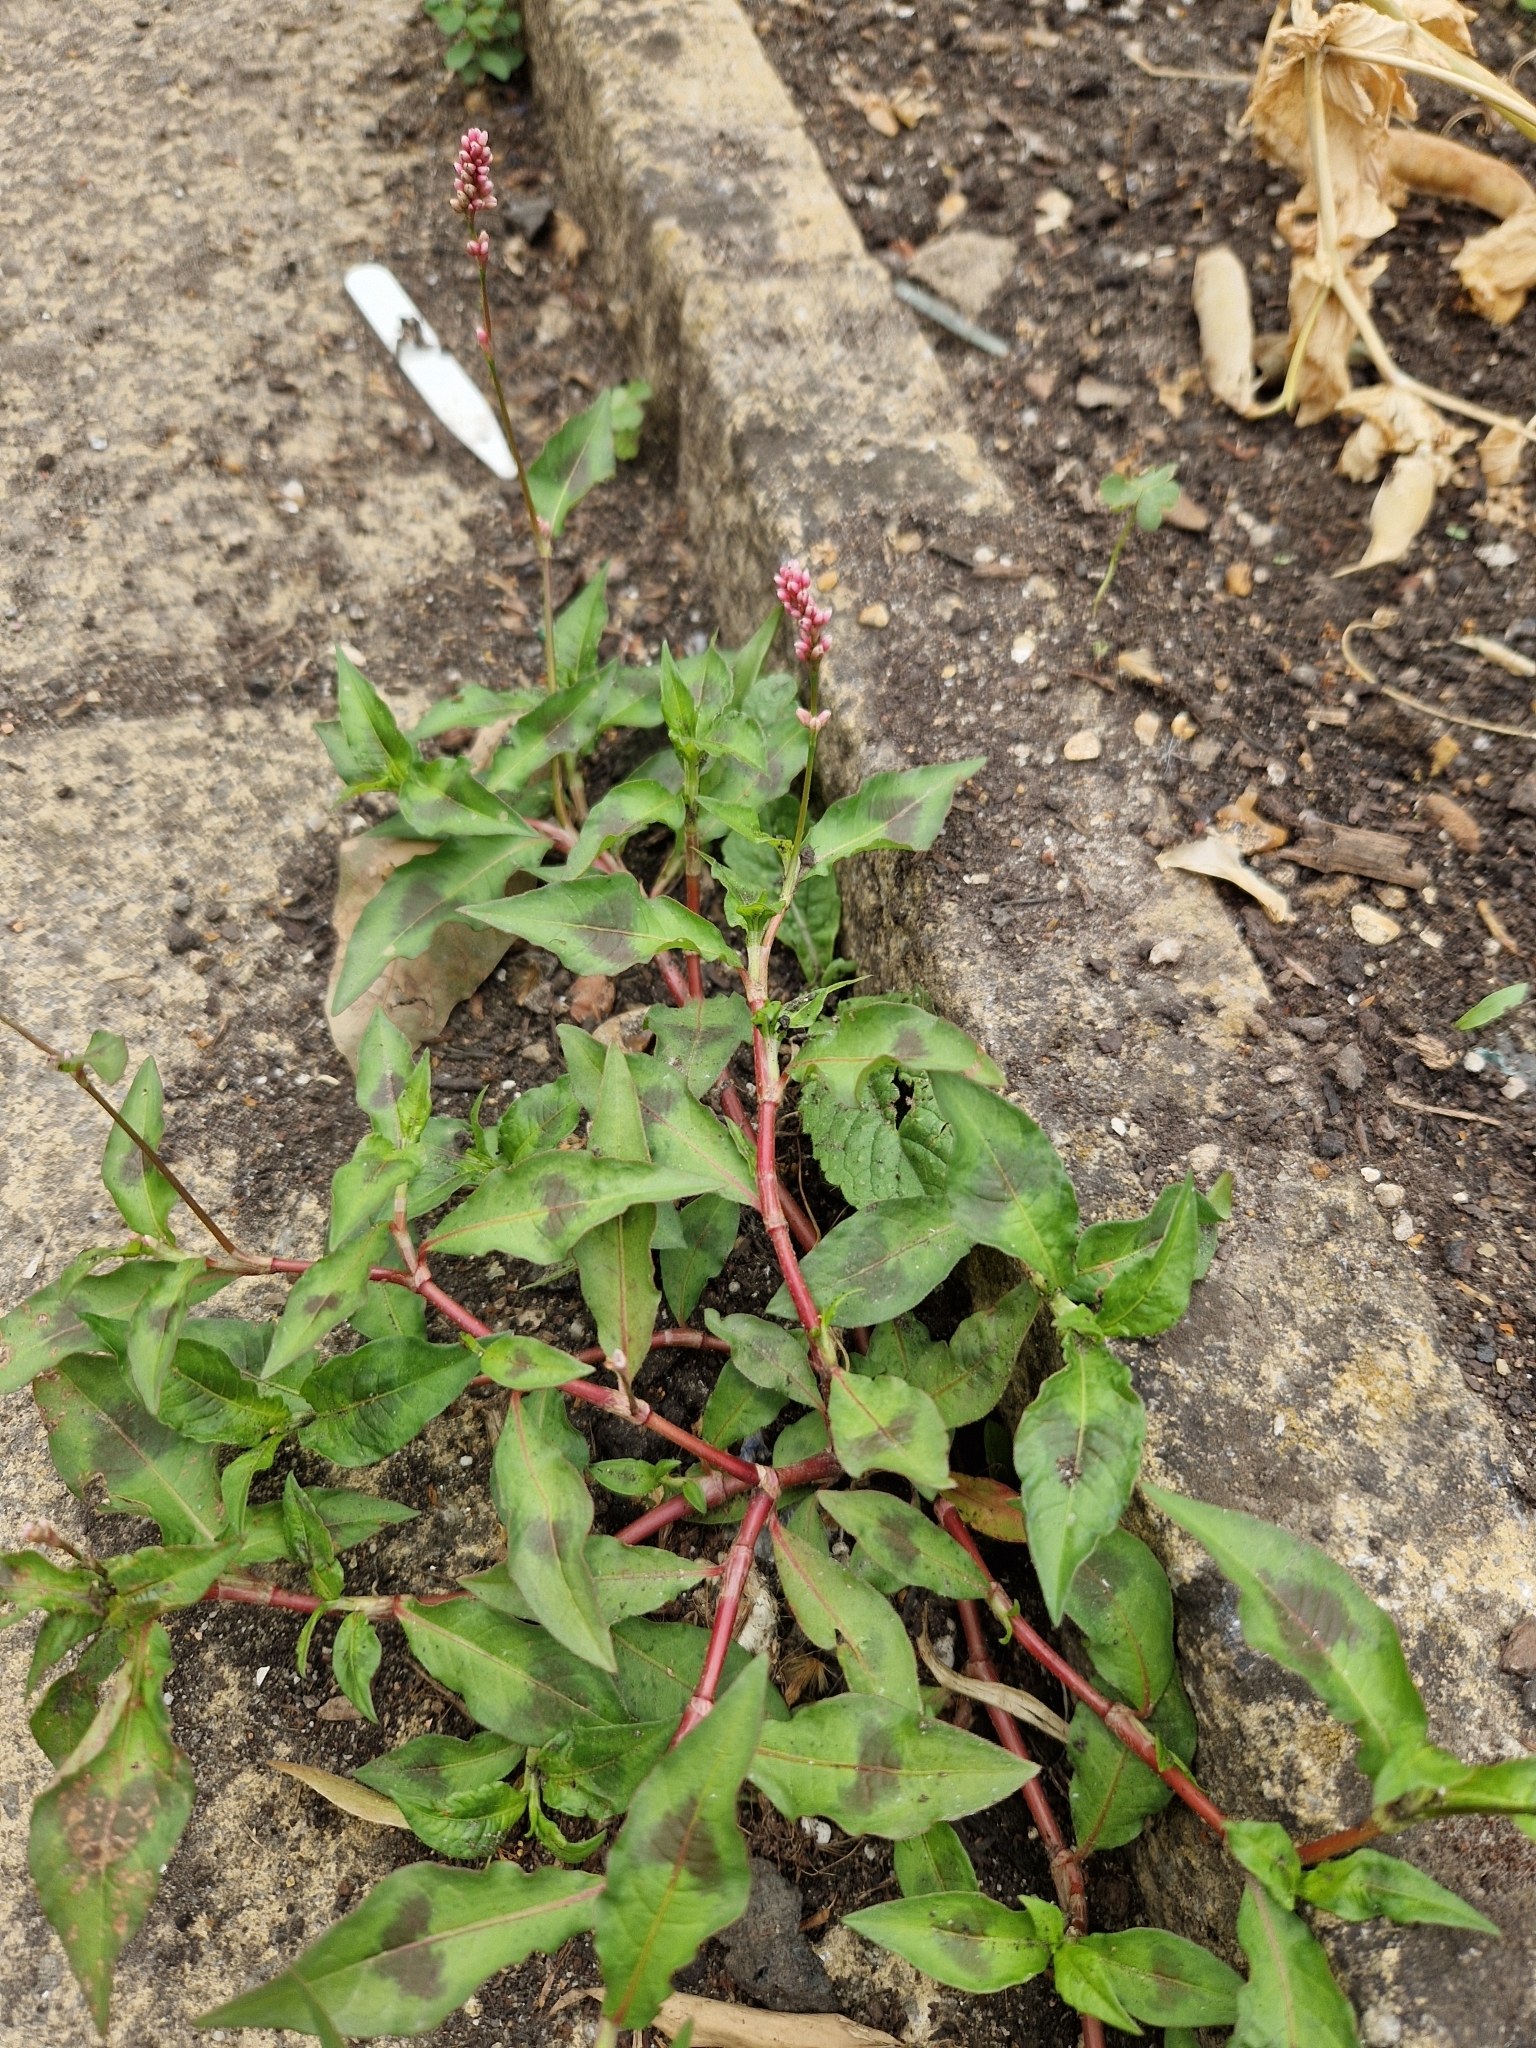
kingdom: Plantae
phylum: Tracheophyta
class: Magnoliopsida
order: Caryophyllales
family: Polygonaceae
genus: Persicaria
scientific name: Persicaria maculosa
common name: Redshank
